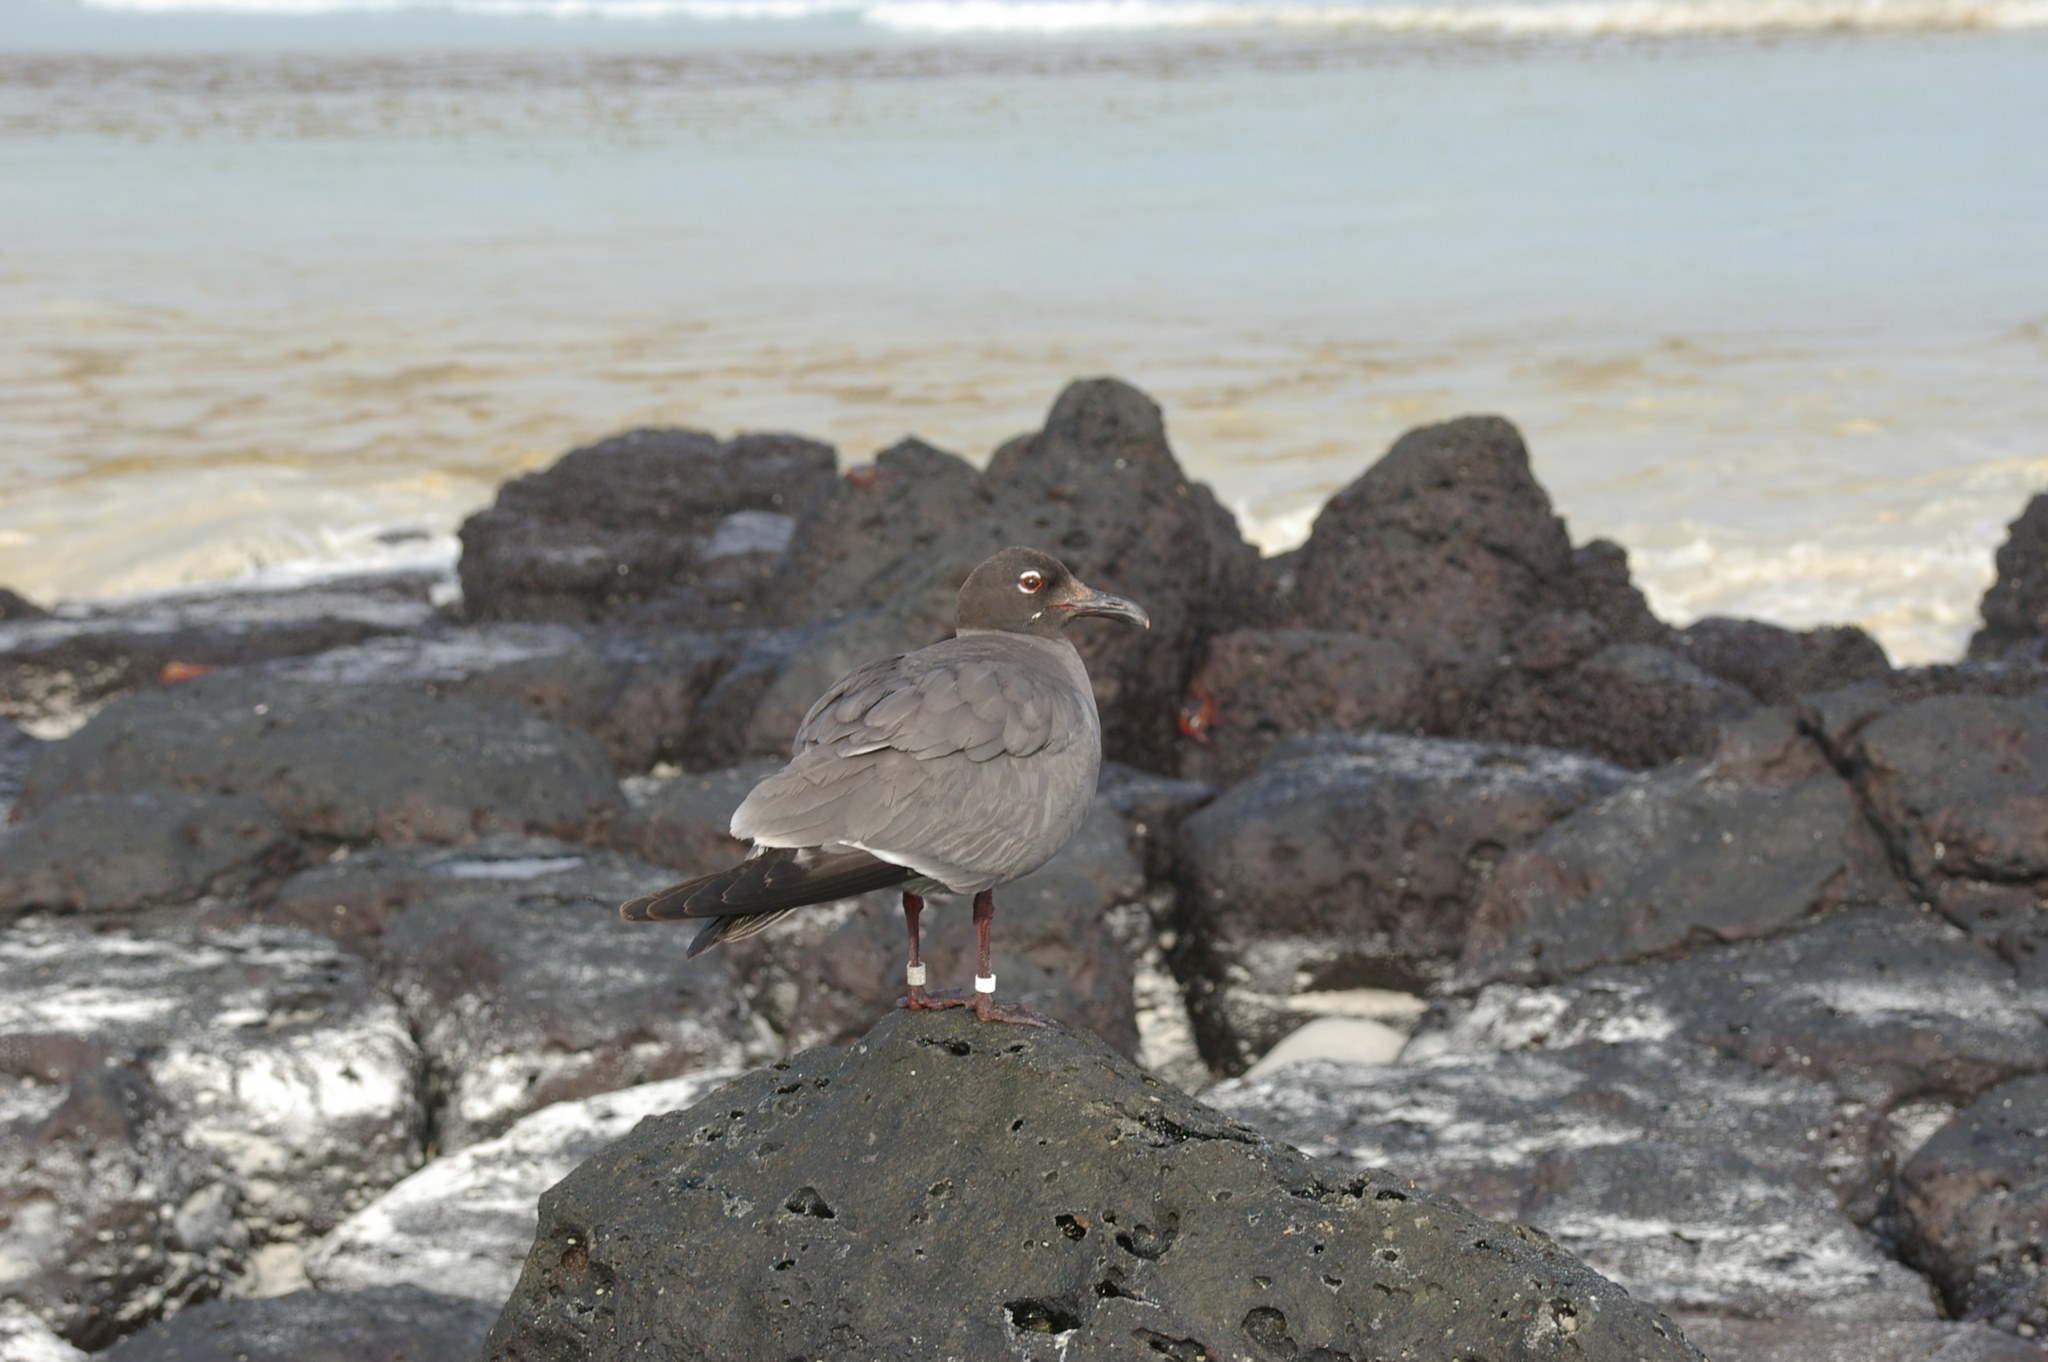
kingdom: Animalia
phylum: Chordata
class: Aves
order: Charadriiformes
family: Laridae
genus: Leucophaeus
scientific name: Leucophaeus fuliginosus
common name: Lava gull
